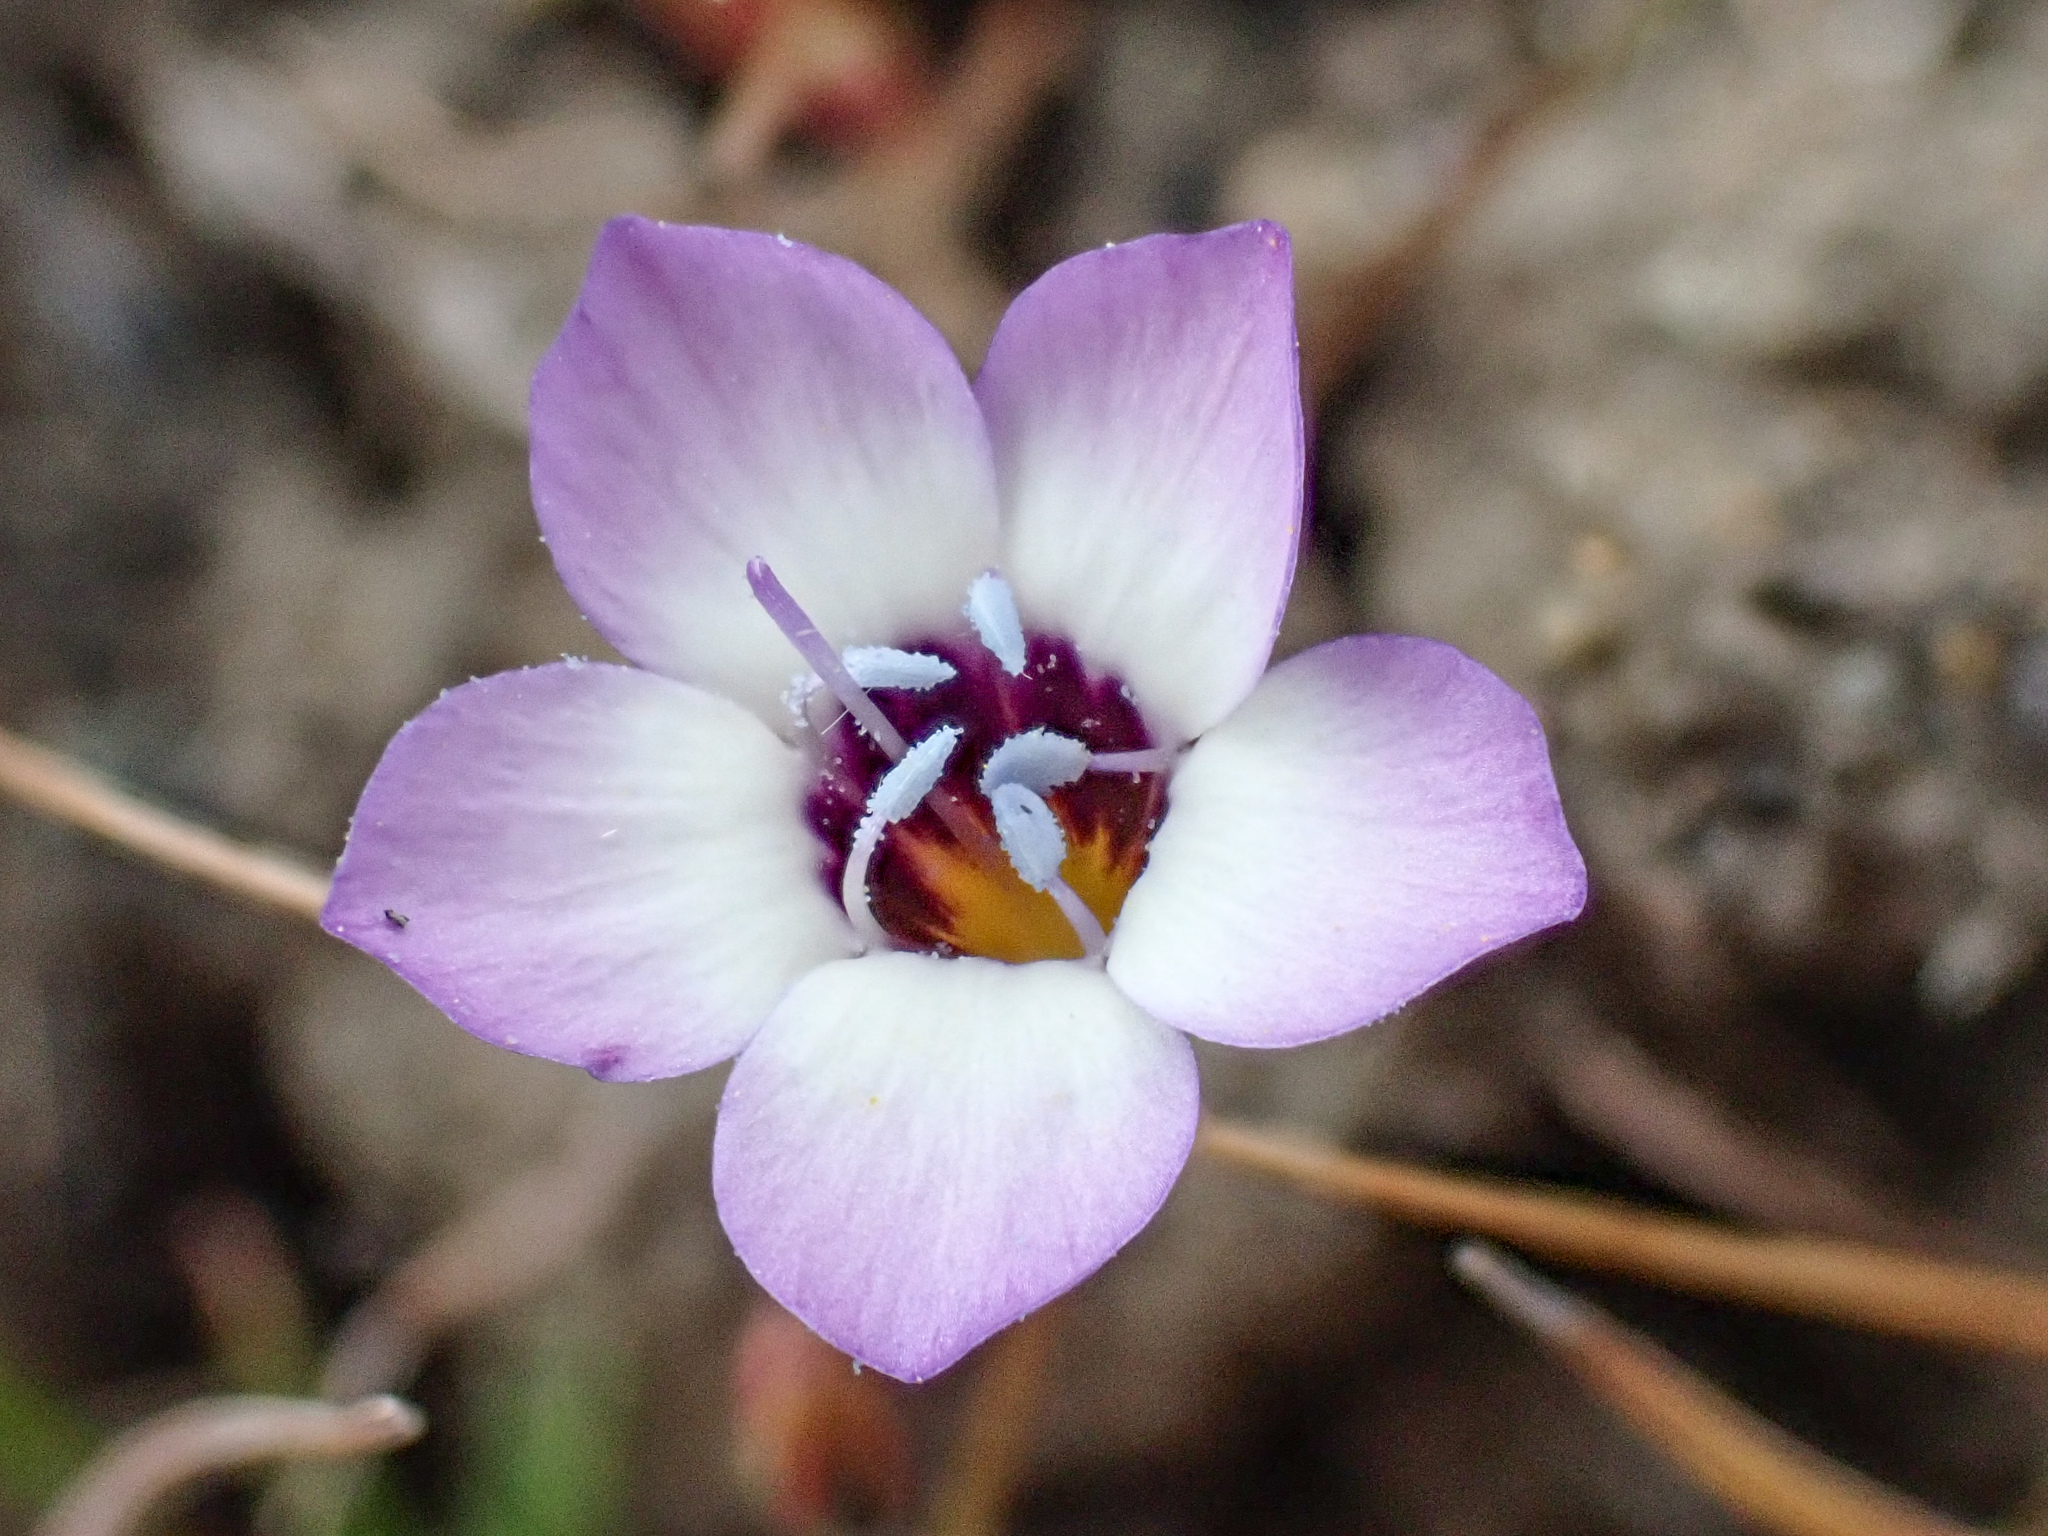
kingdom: Plantae
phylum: Tracheophyta
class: Magnoliopsida
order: Ericales
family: Polemoniaceae
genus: Gilia
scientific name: Gilia tricolor
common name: Bird's-eyes
